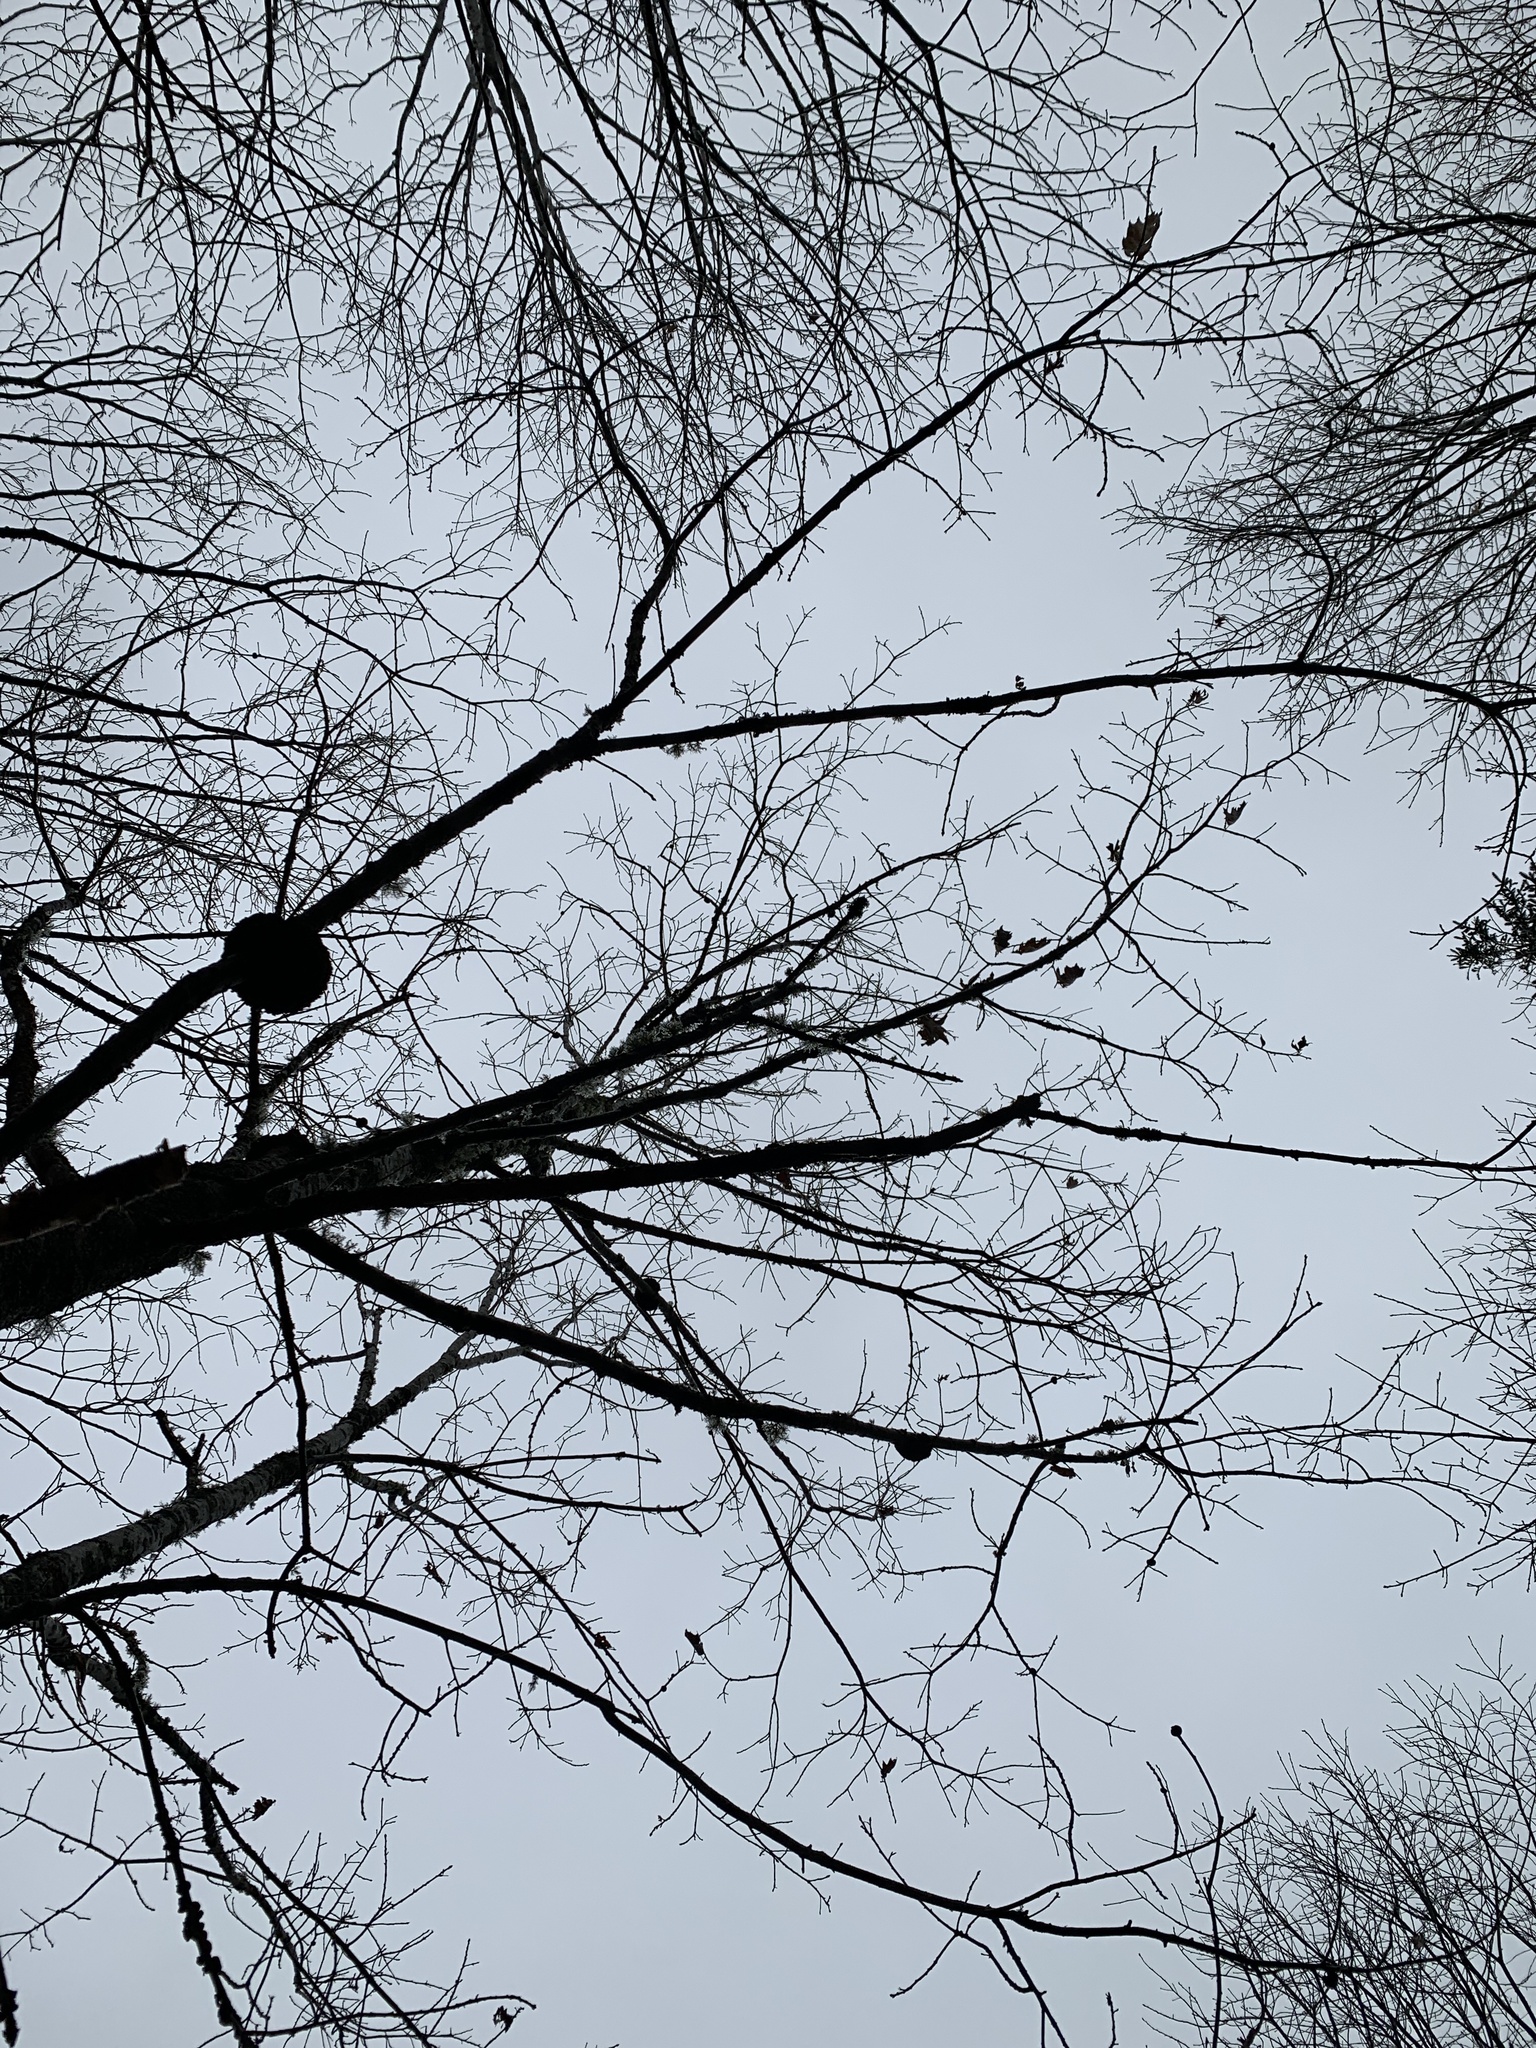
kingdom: Bacteria
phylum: Proteobacteria
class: Alphaproteobacteria
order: Rhizobiales
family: Rhizobiaceae
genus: Rhizobium
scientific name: Rhizobium Agrobacterium radiobacter
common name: Bacterial crown gall
